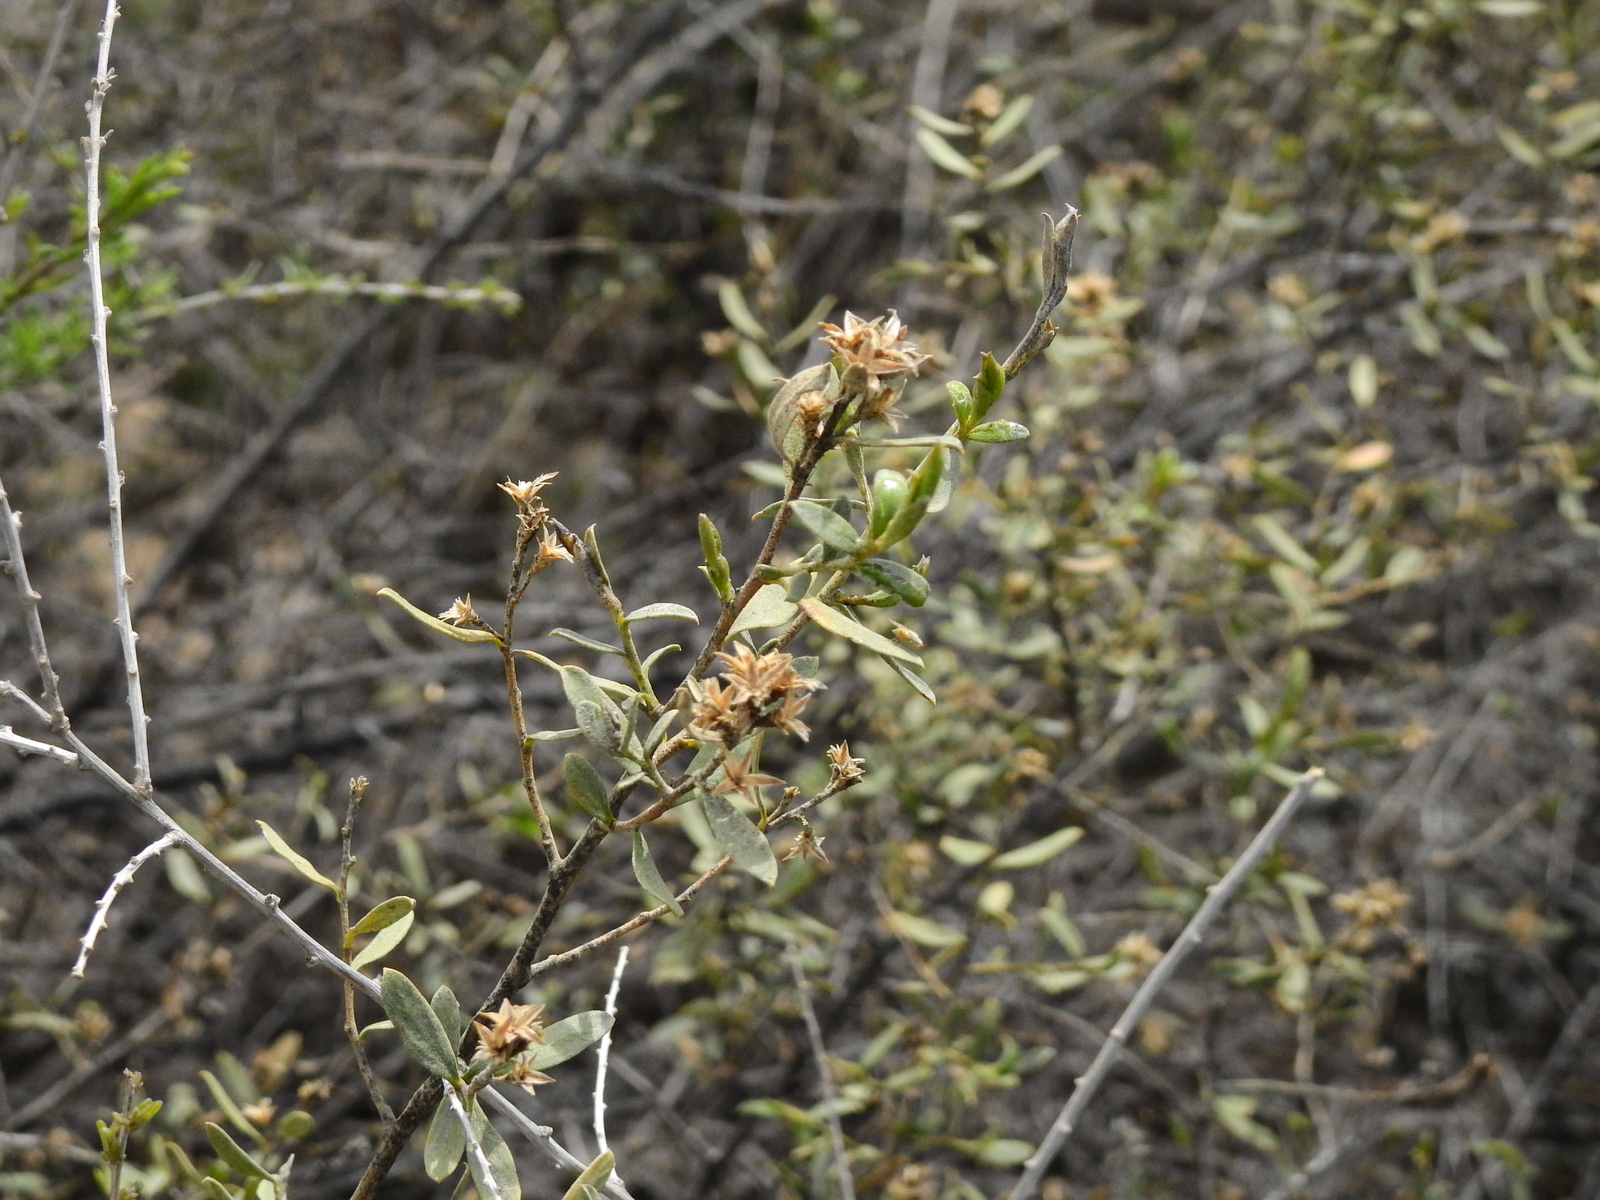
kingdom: Plantae
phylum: Tracheophyta
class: Magnoliopsida
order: Asterales
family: Asteraceae
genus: Gochnatia
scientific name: Gochnatia glutinosa
